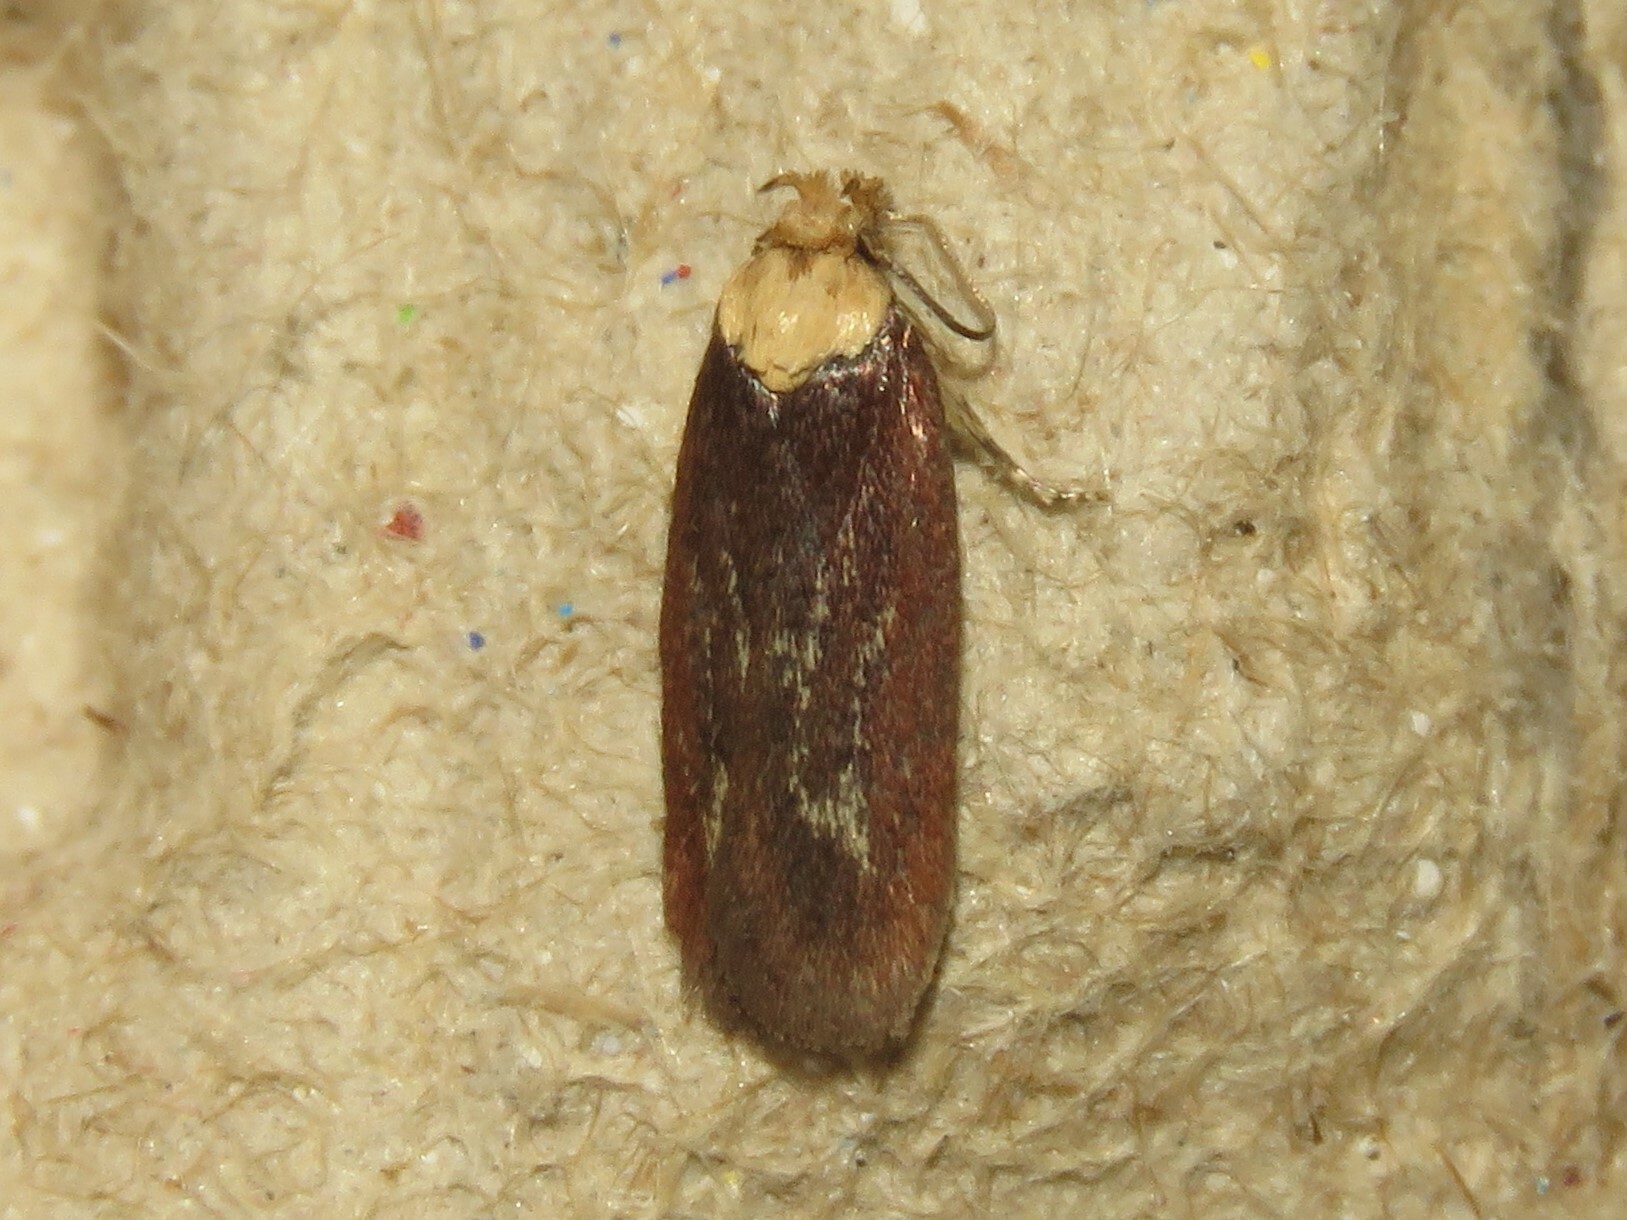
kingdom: Animalia
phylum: Arthropoda
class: Insecta
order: Lepidoptera
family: Depressariidae
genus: Depressaria
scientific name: Depressaria depressana
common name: Lost flat-body
